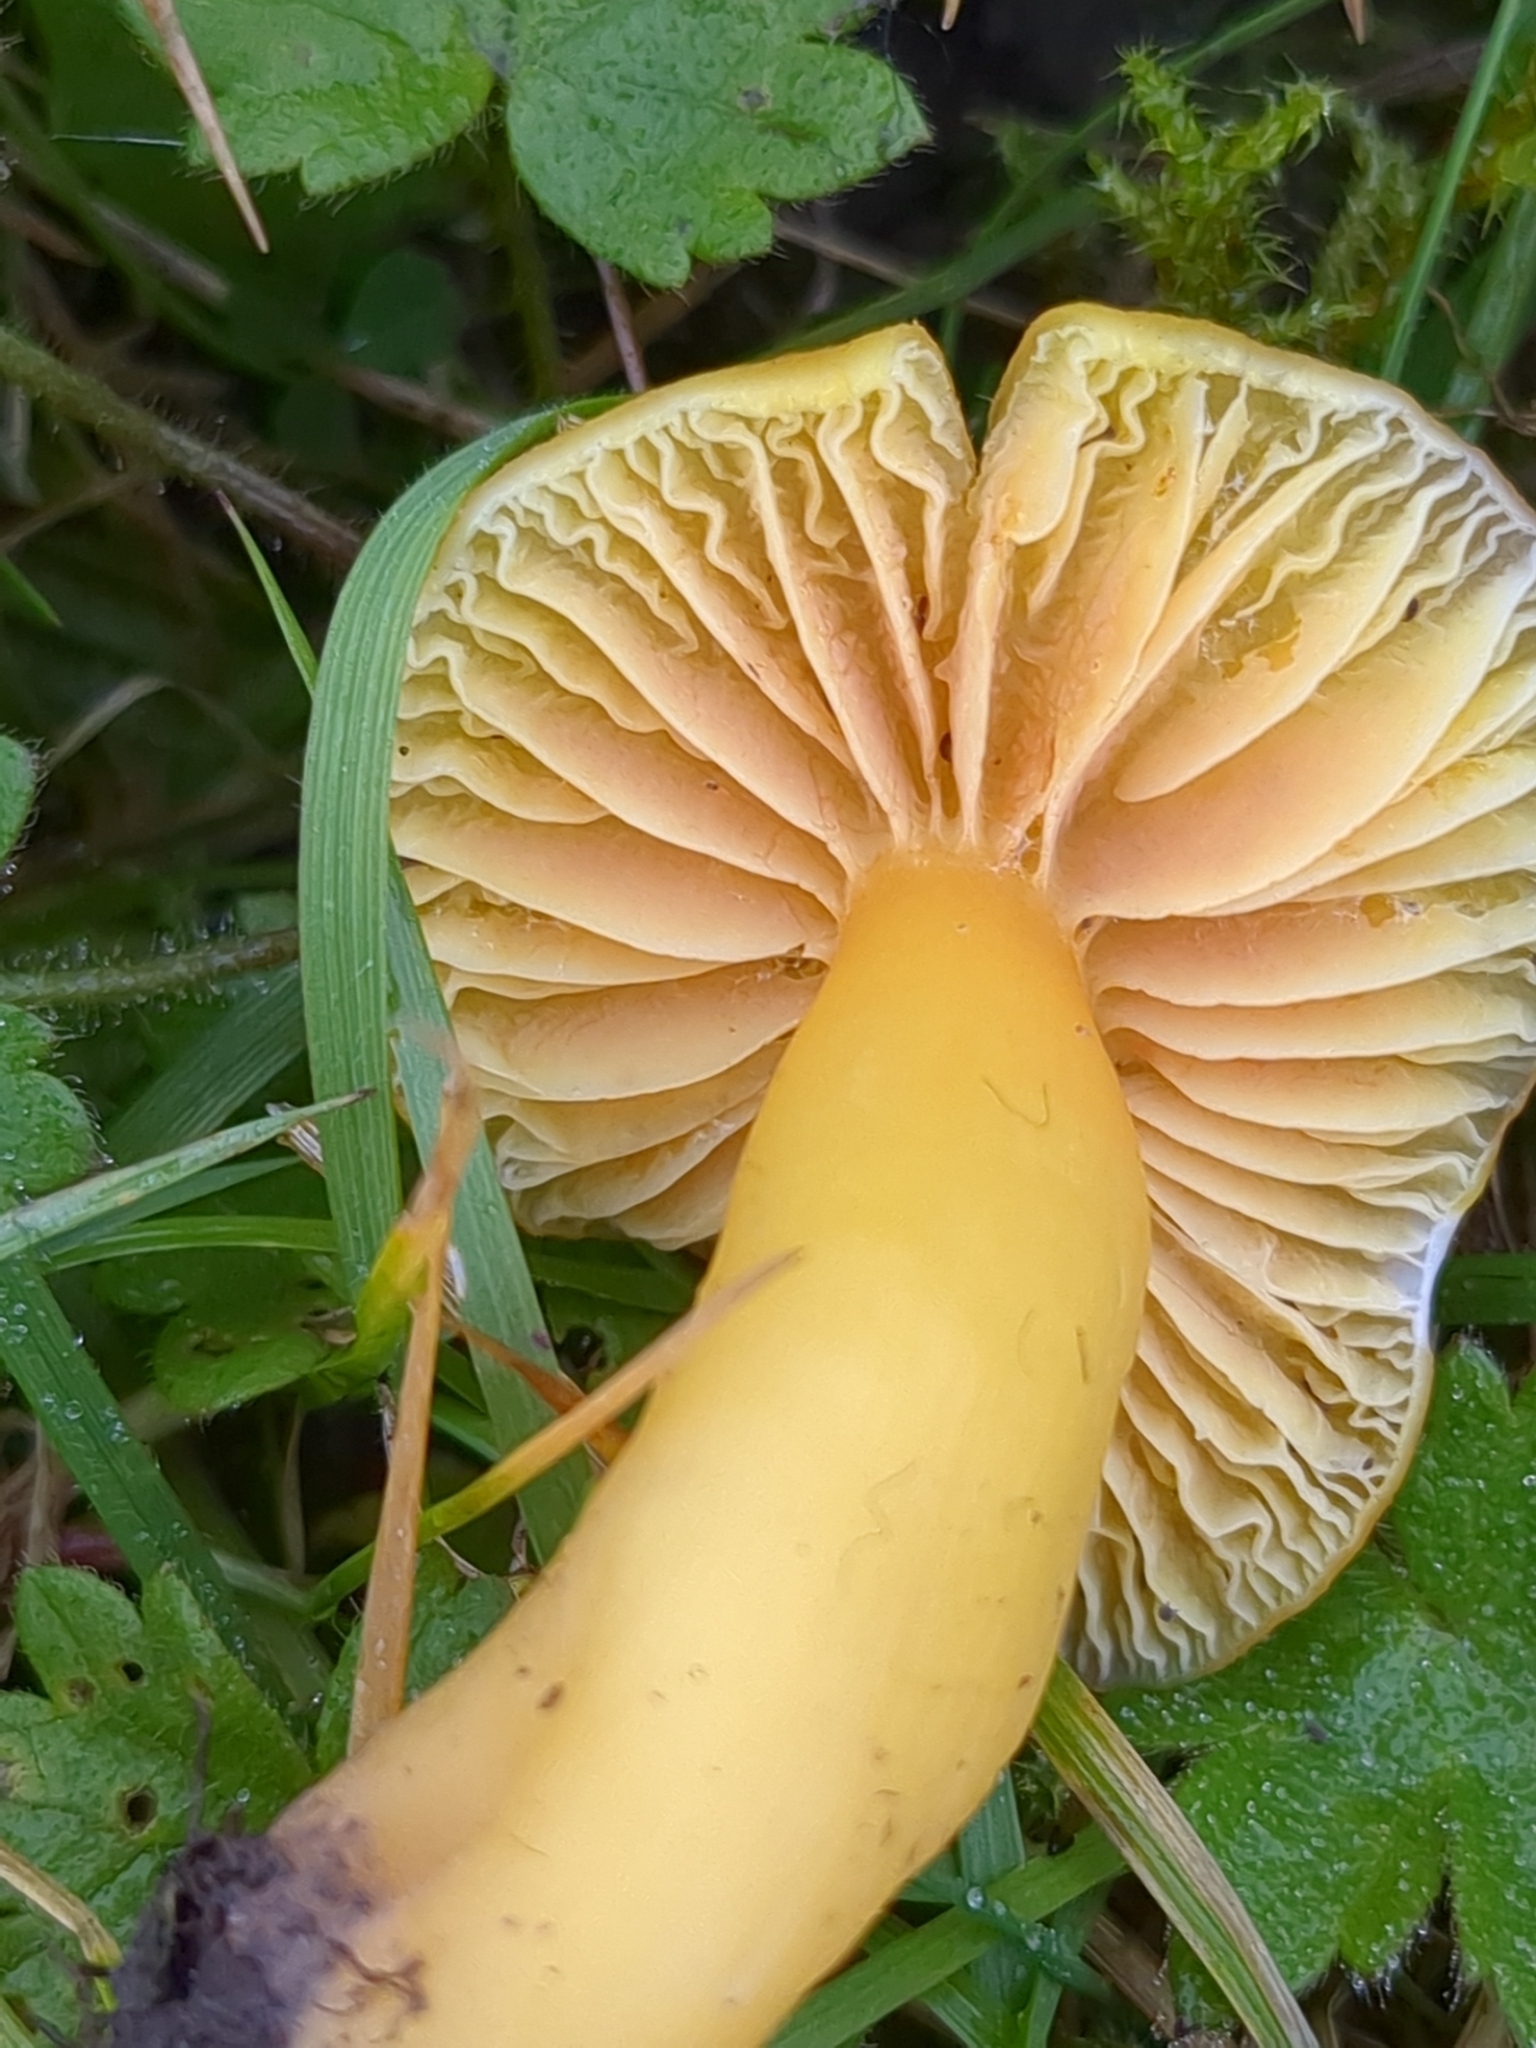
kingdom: Fungi
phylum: Basidiomycota
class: Agaricomycetes
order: Agaricales
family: Hygrophoraceae
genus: Hygrocybe
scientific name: Hygrocybe quieta
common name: Oily waxcap
